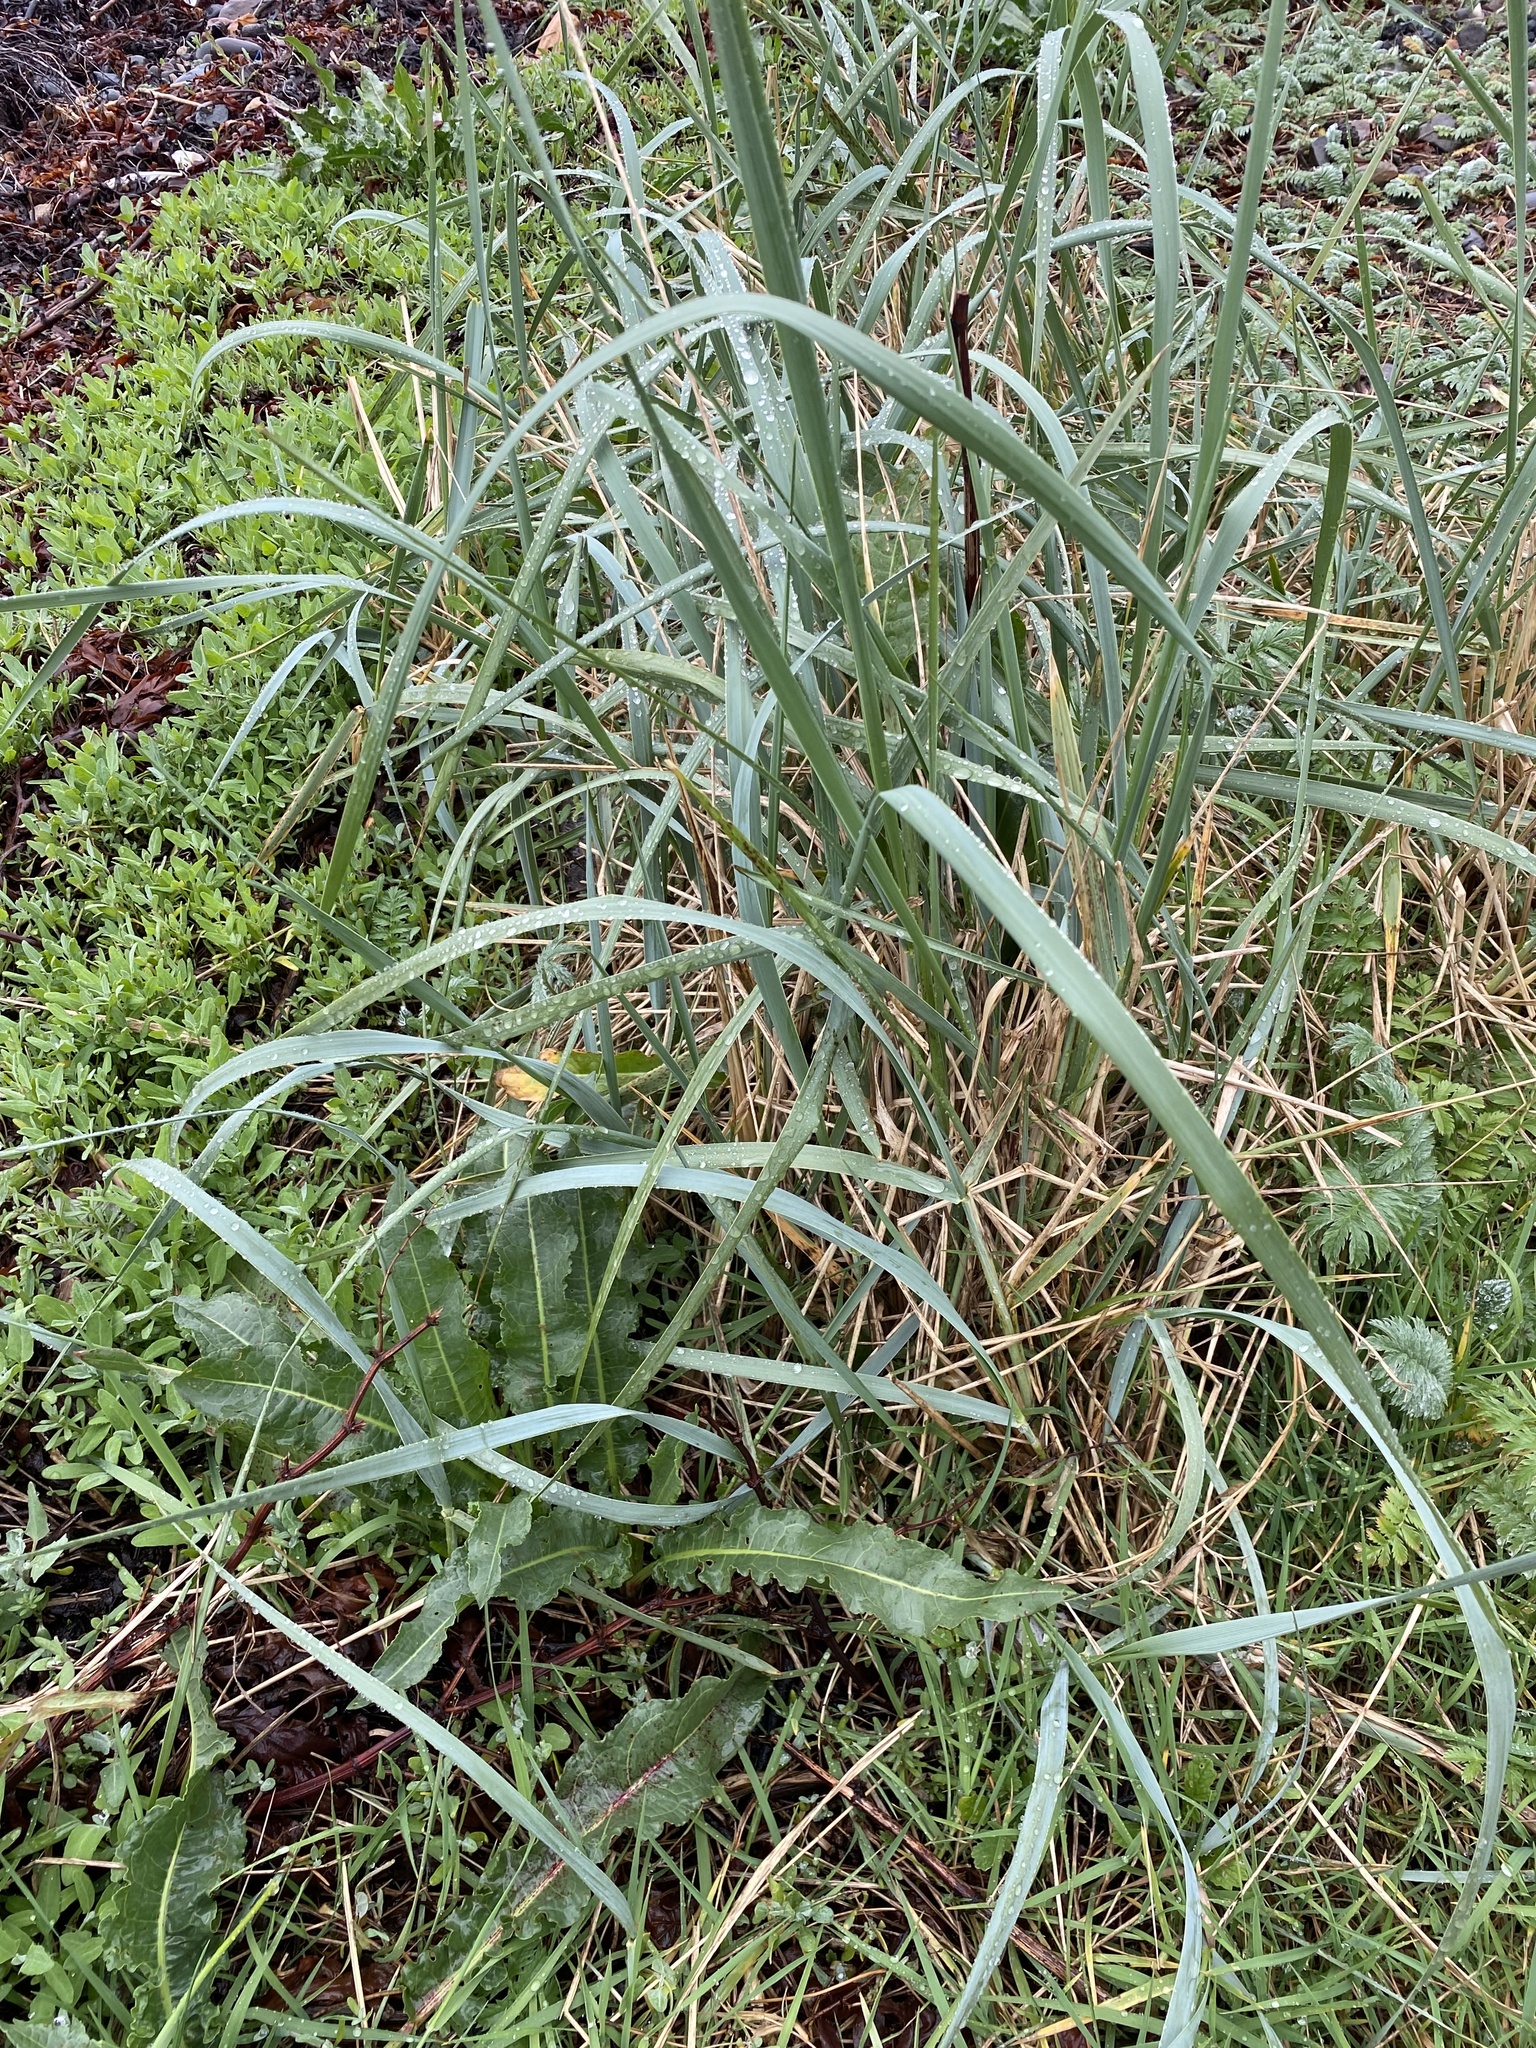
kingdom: Plantae
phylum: Tracheophyta
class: Liliopsida
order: Poales
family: Poaceae
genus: Leymus
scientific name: Leymus arenarius
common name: Lyme-grass
